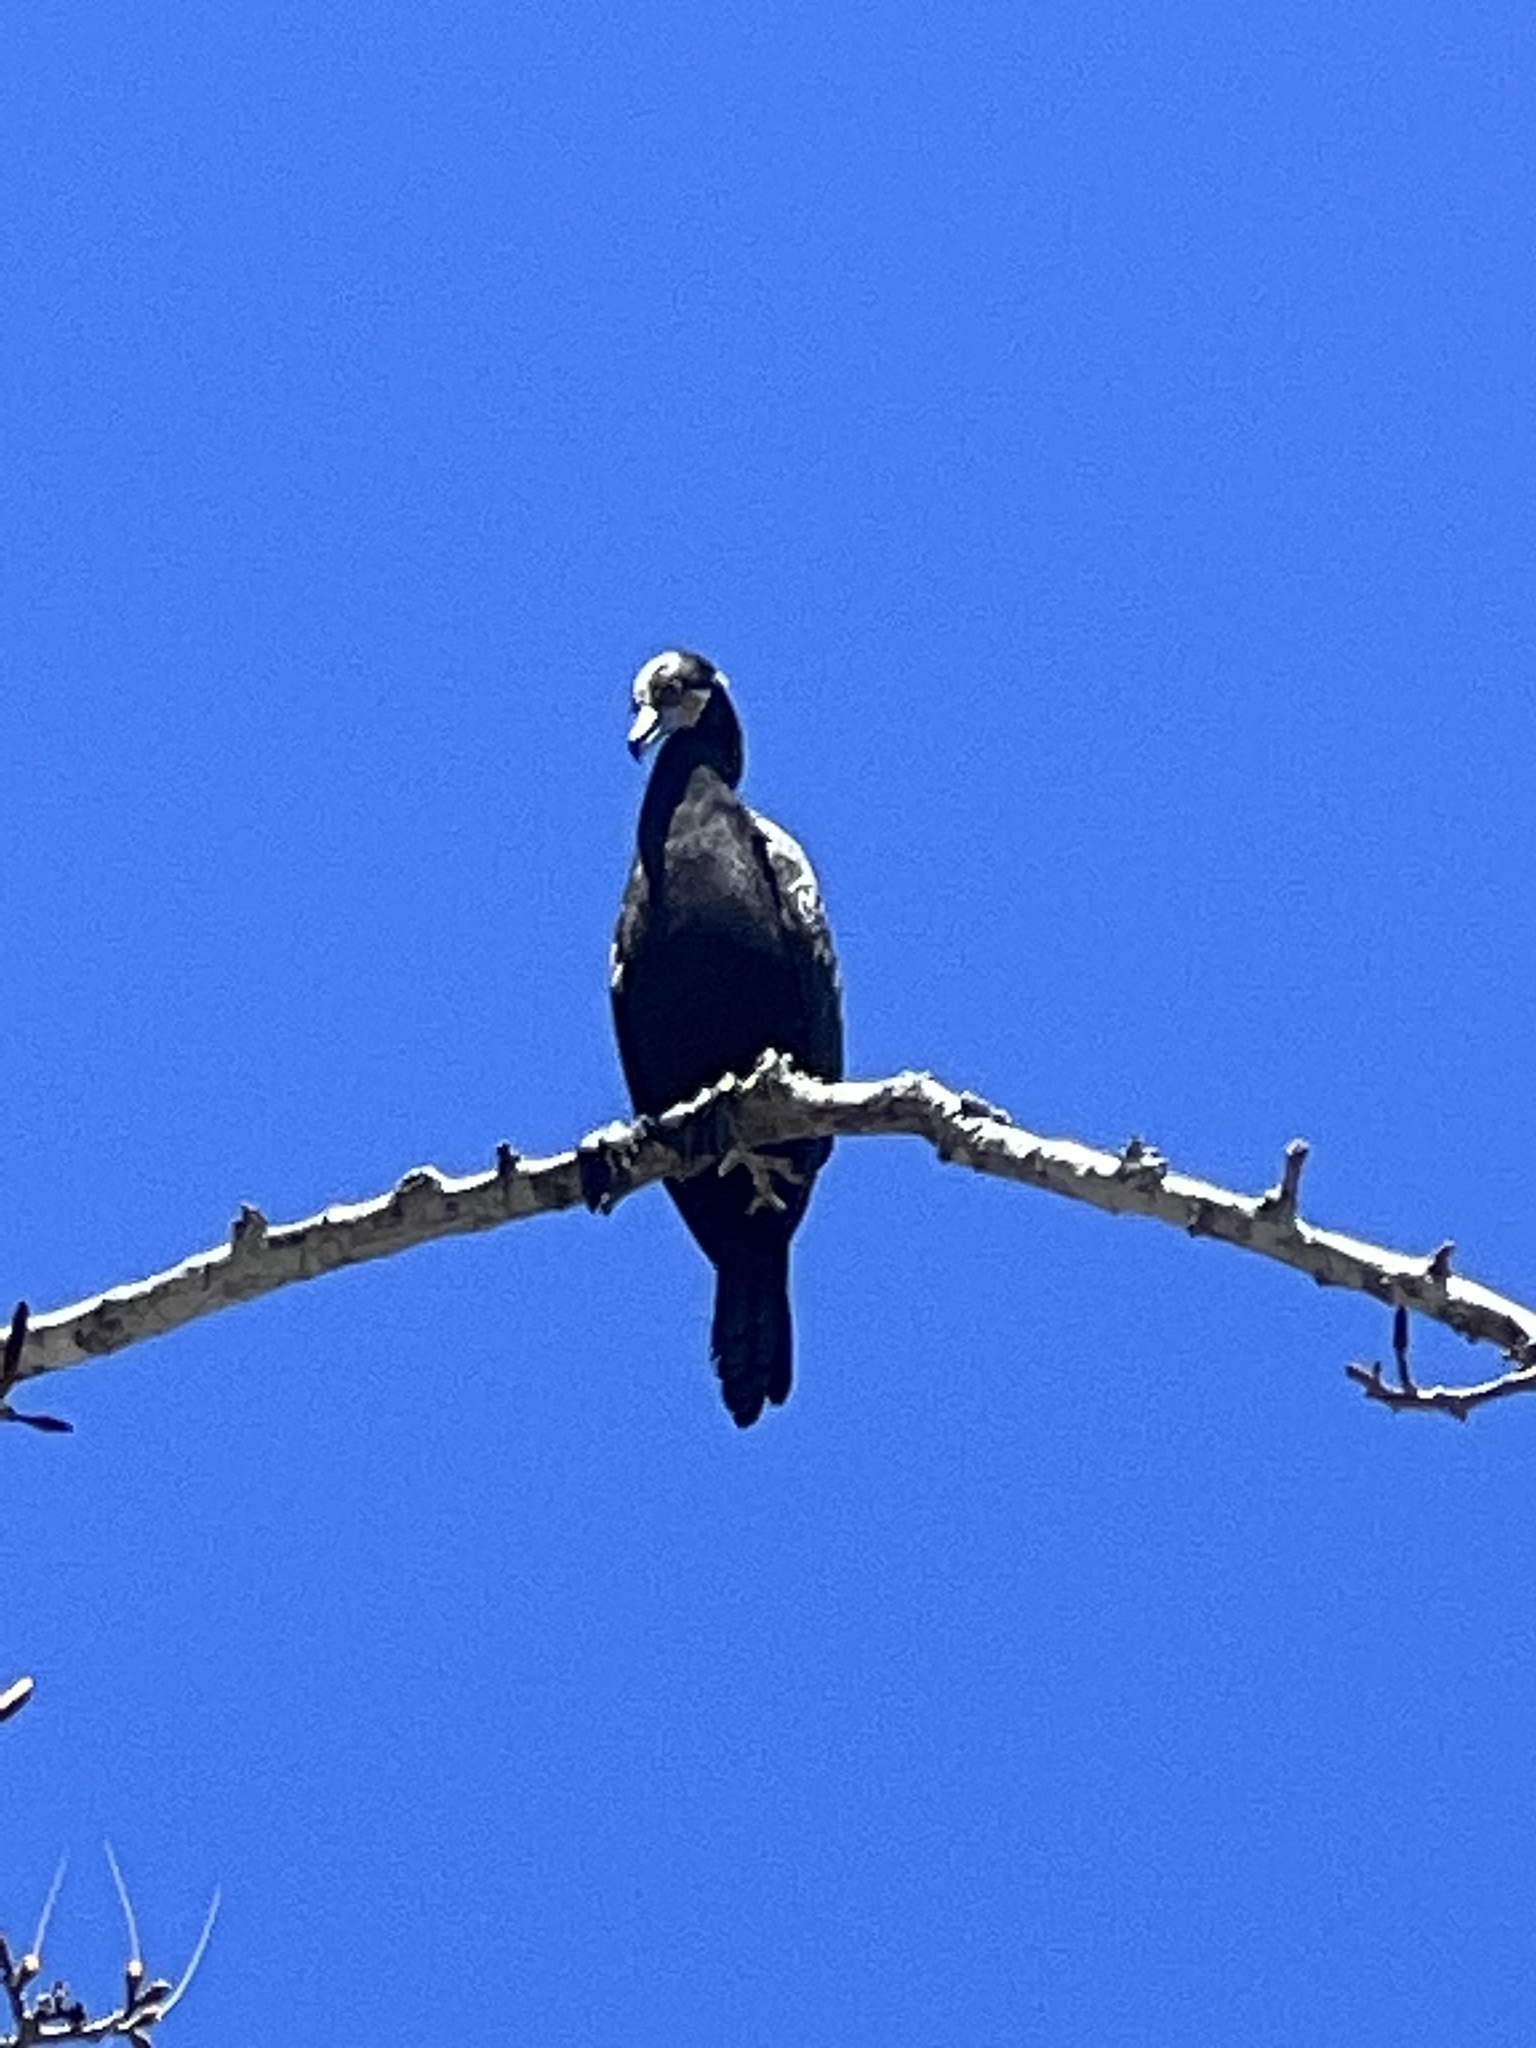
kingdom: Animalia
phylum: Chordata
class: Aves
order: Suliformes
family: Phalacrocoracidae
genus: Phalacrocorax
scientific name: Phalacrocorax brasilianus
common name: Neotropic cormorant
